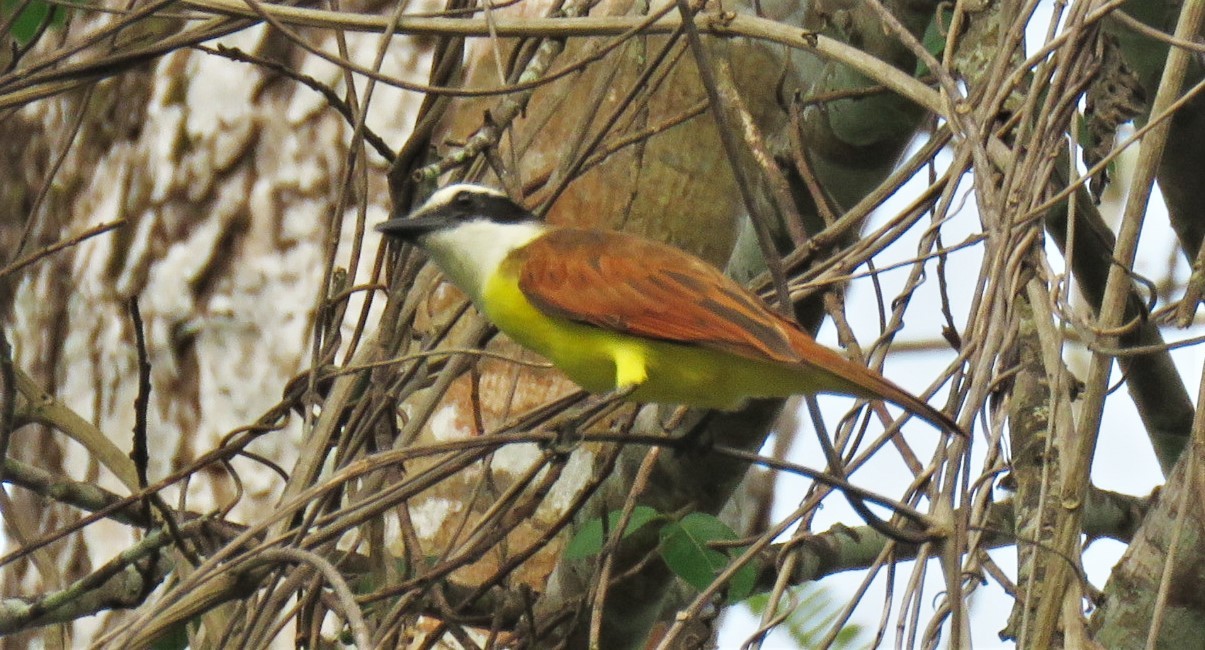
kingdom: Animalia
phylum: Chordata
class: Aves
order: Passeriformes
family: Tyrannidae
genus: Pitangus
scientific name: Pitangus sulphuratus
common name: Great kiskadee
